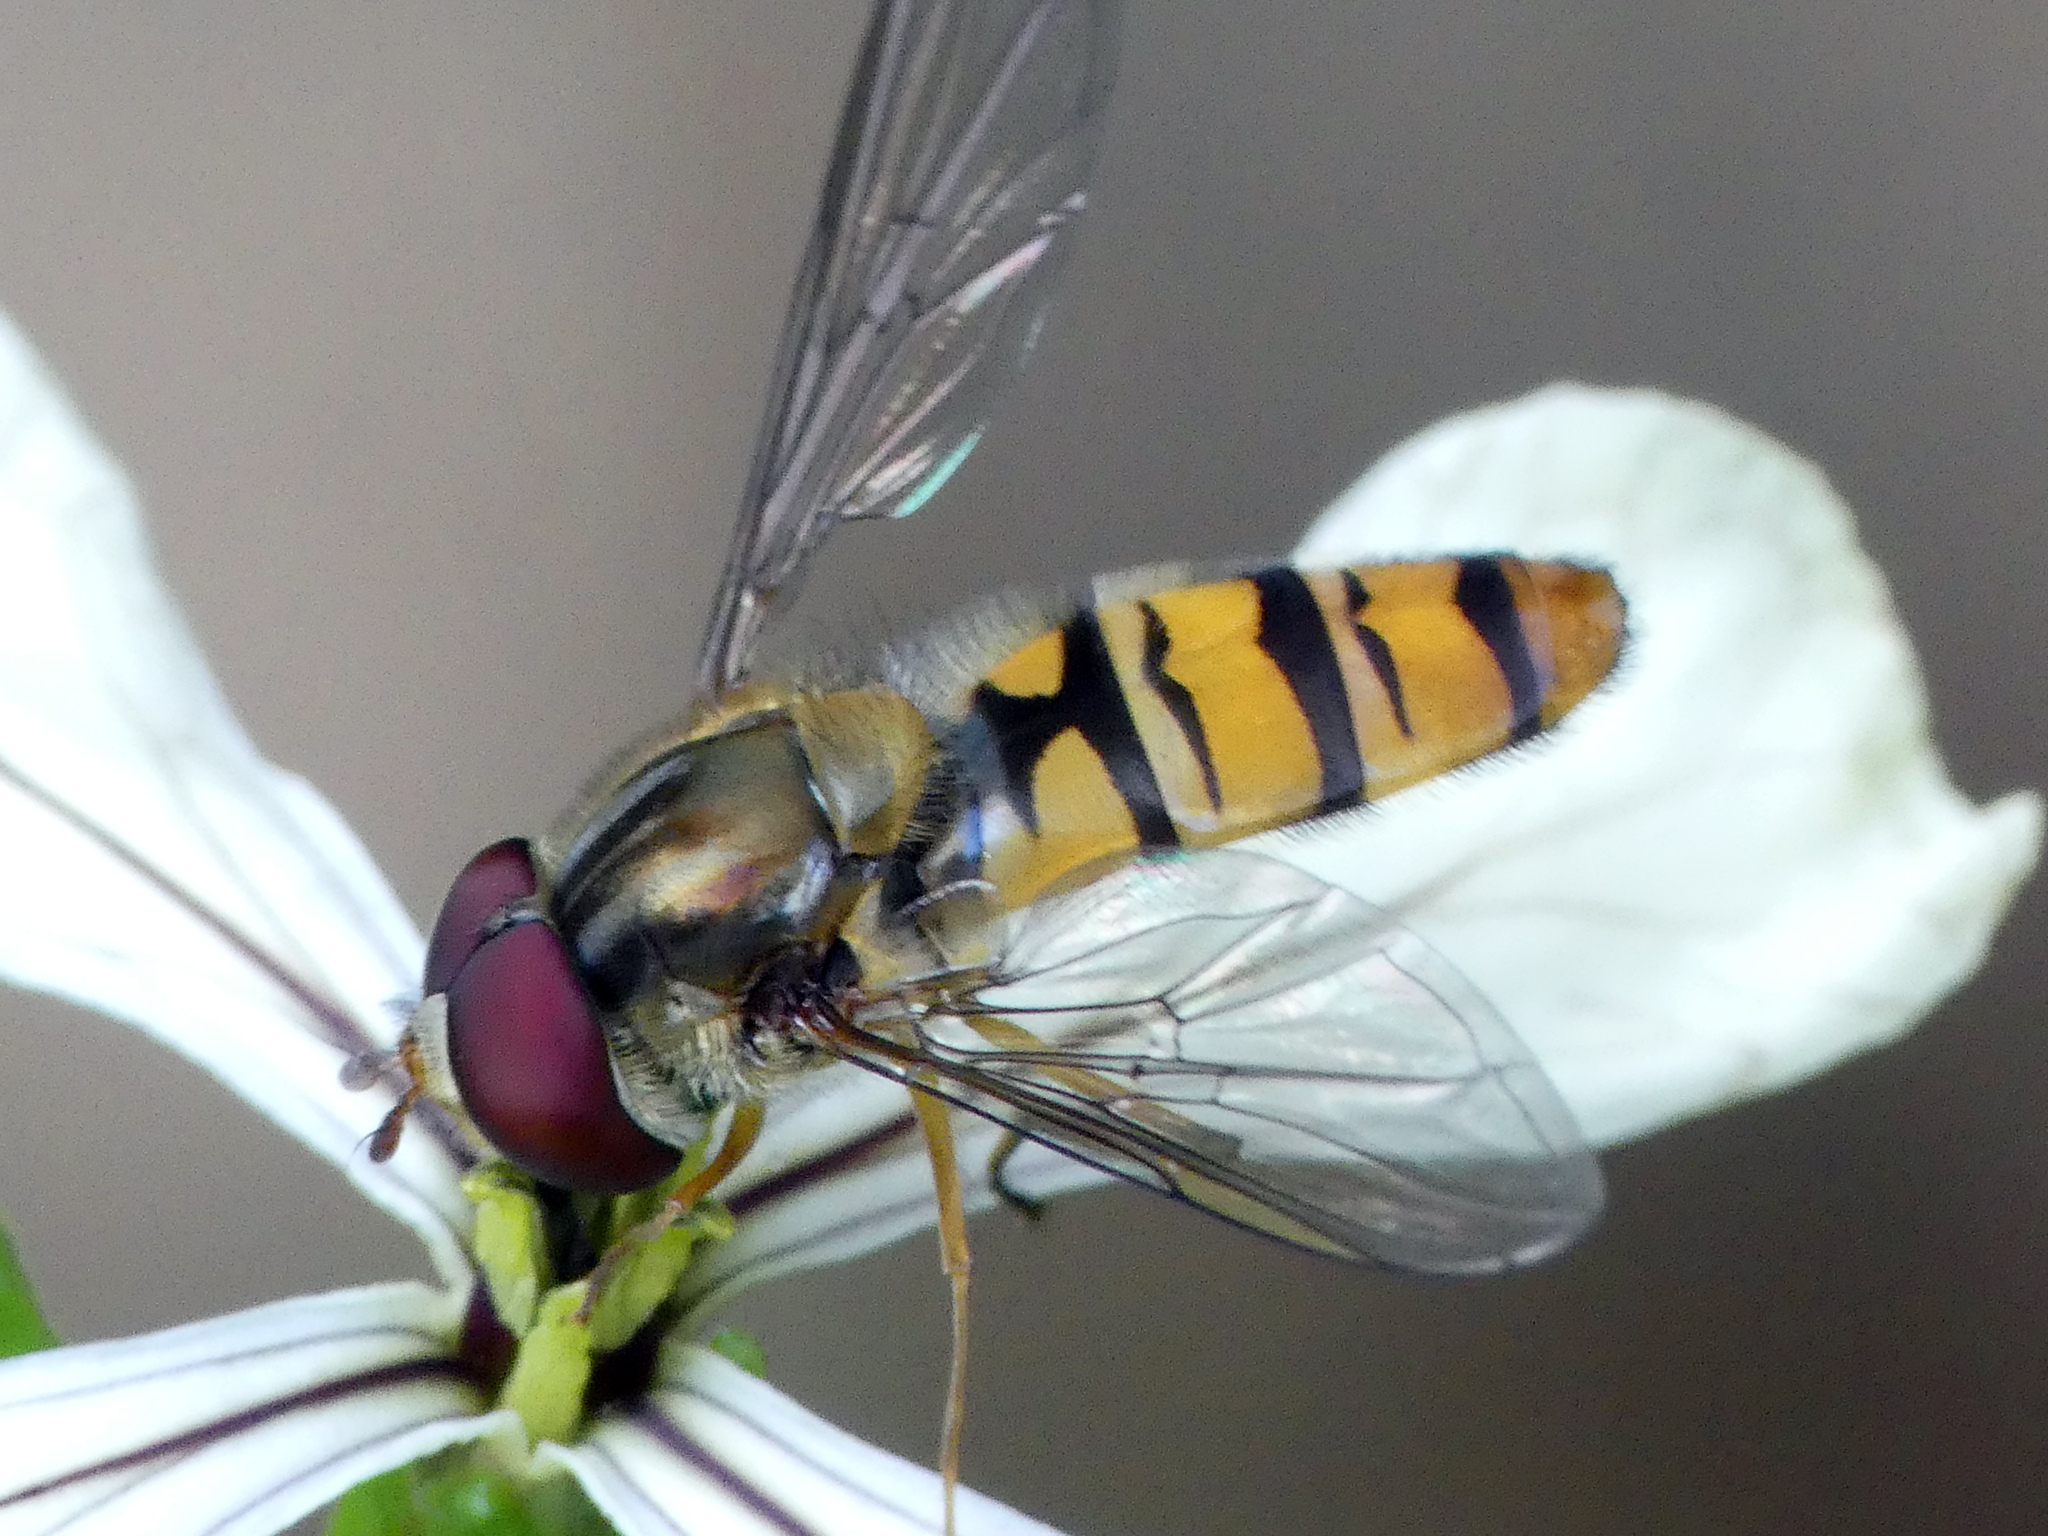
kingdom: Animalia
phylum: Arthropoda
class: Insecta
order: Diptera
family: Syrphidae
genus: Episyrphus
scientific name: Episyrphus balteatus
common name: Marmalade hoverfly
